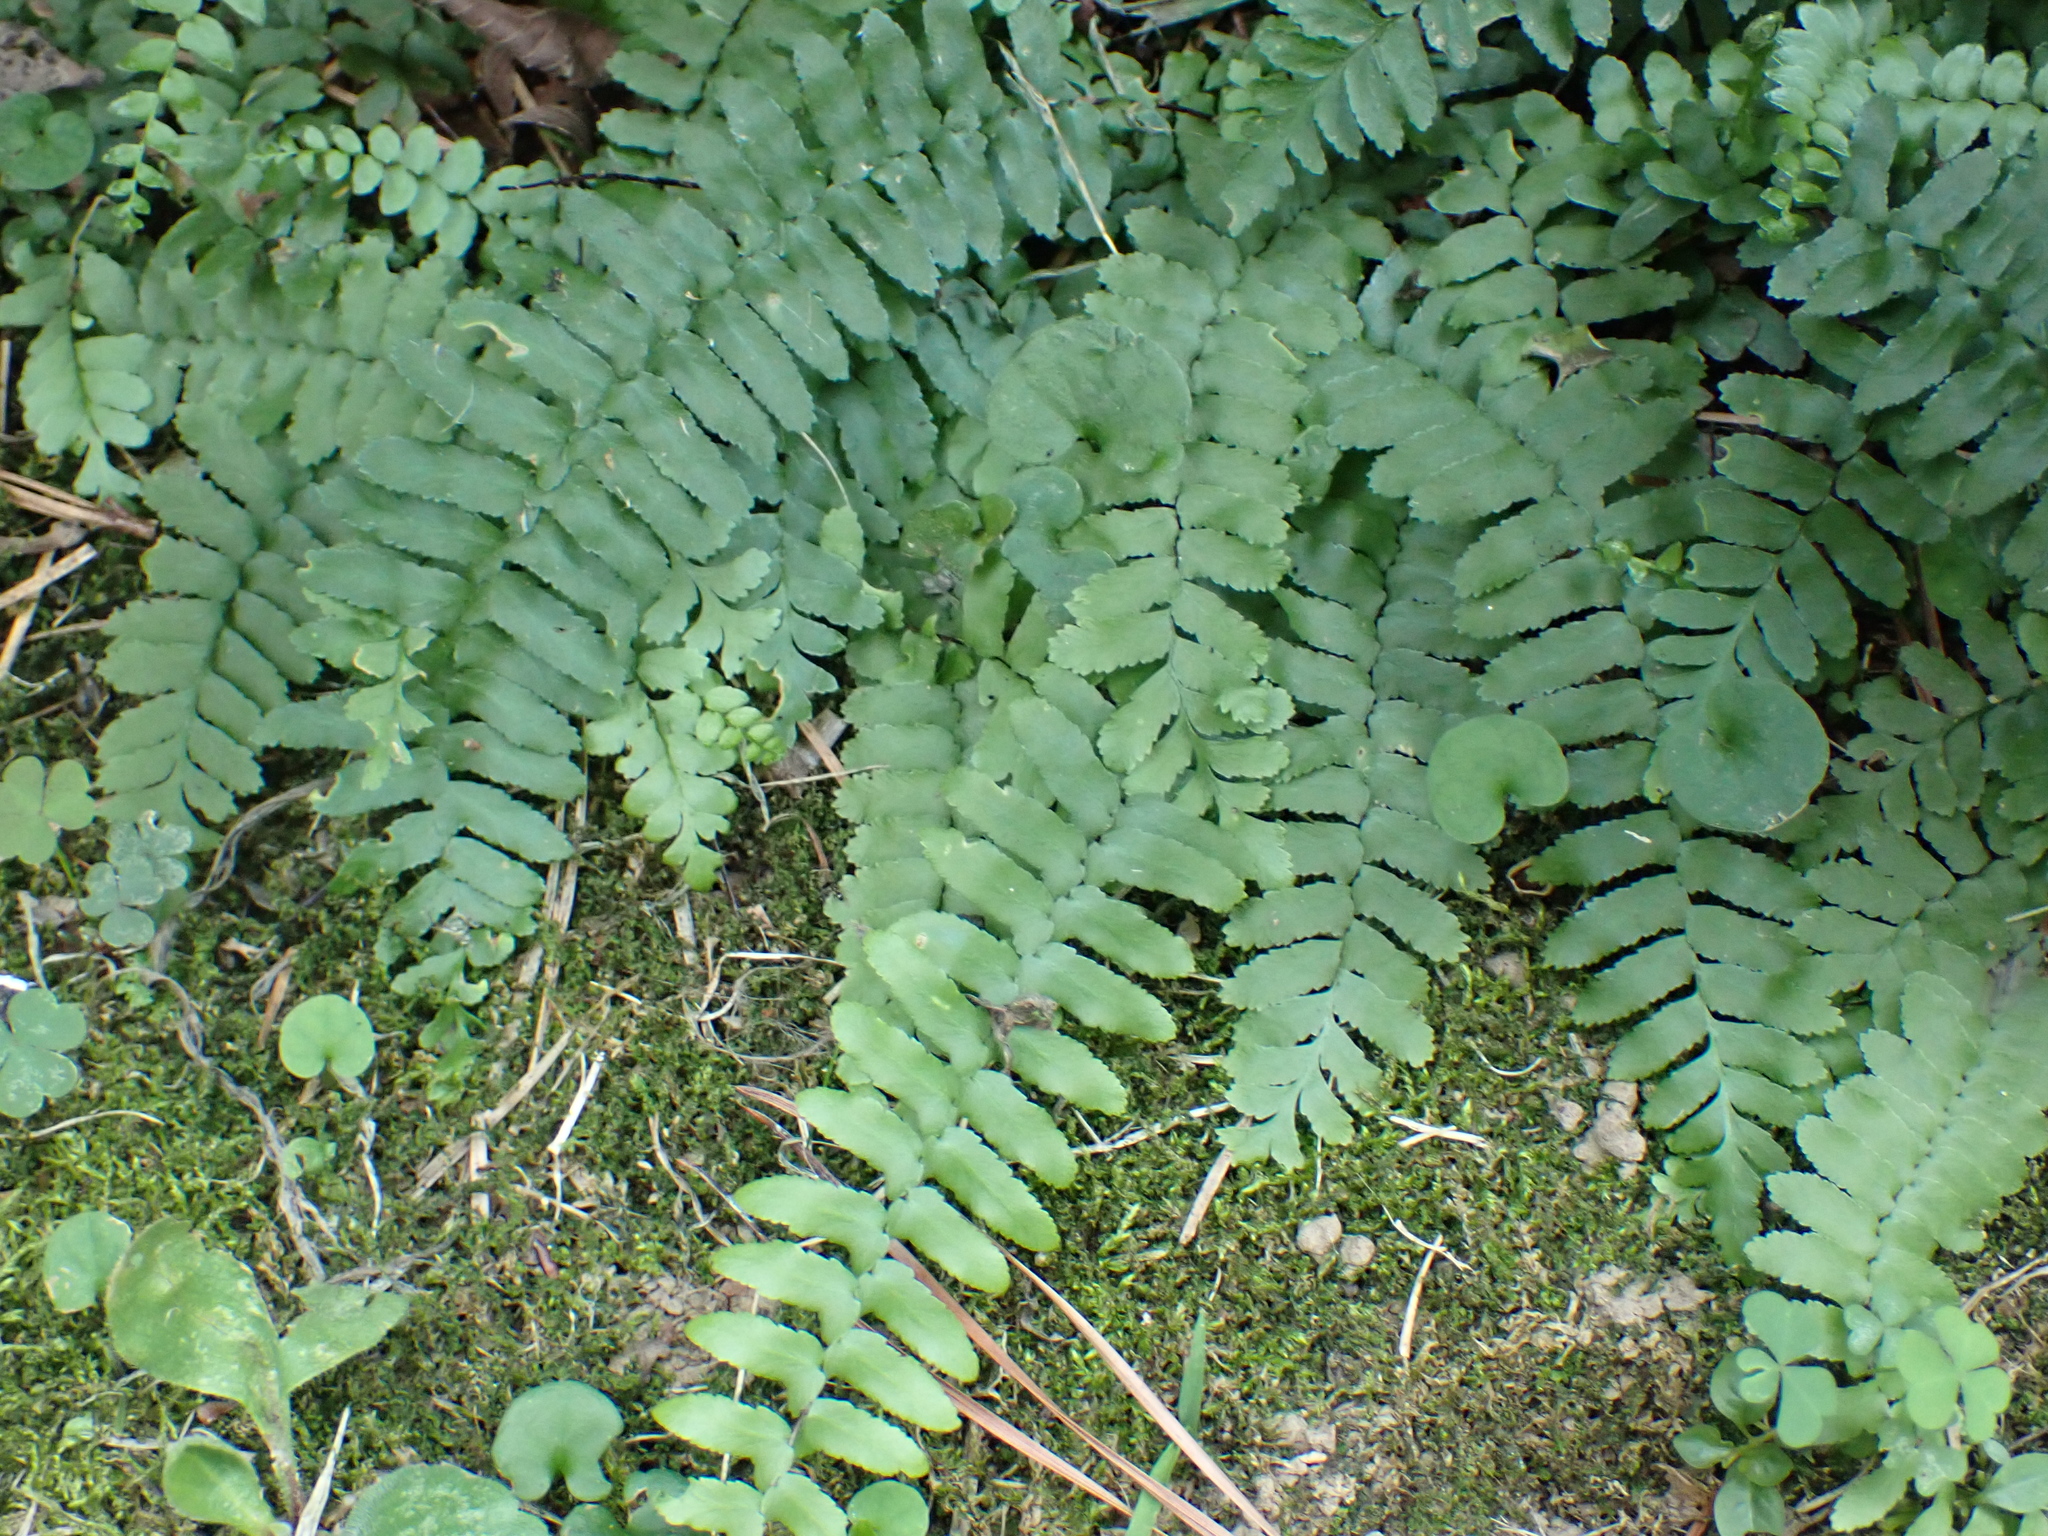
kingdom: Plantae
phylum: Tracheophyta
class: Polypodiopsida
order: Polypodiales
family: Aspleniaceae
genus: Asplenium
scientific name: Asplenium platyneuron
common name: Ebony spleenwort
